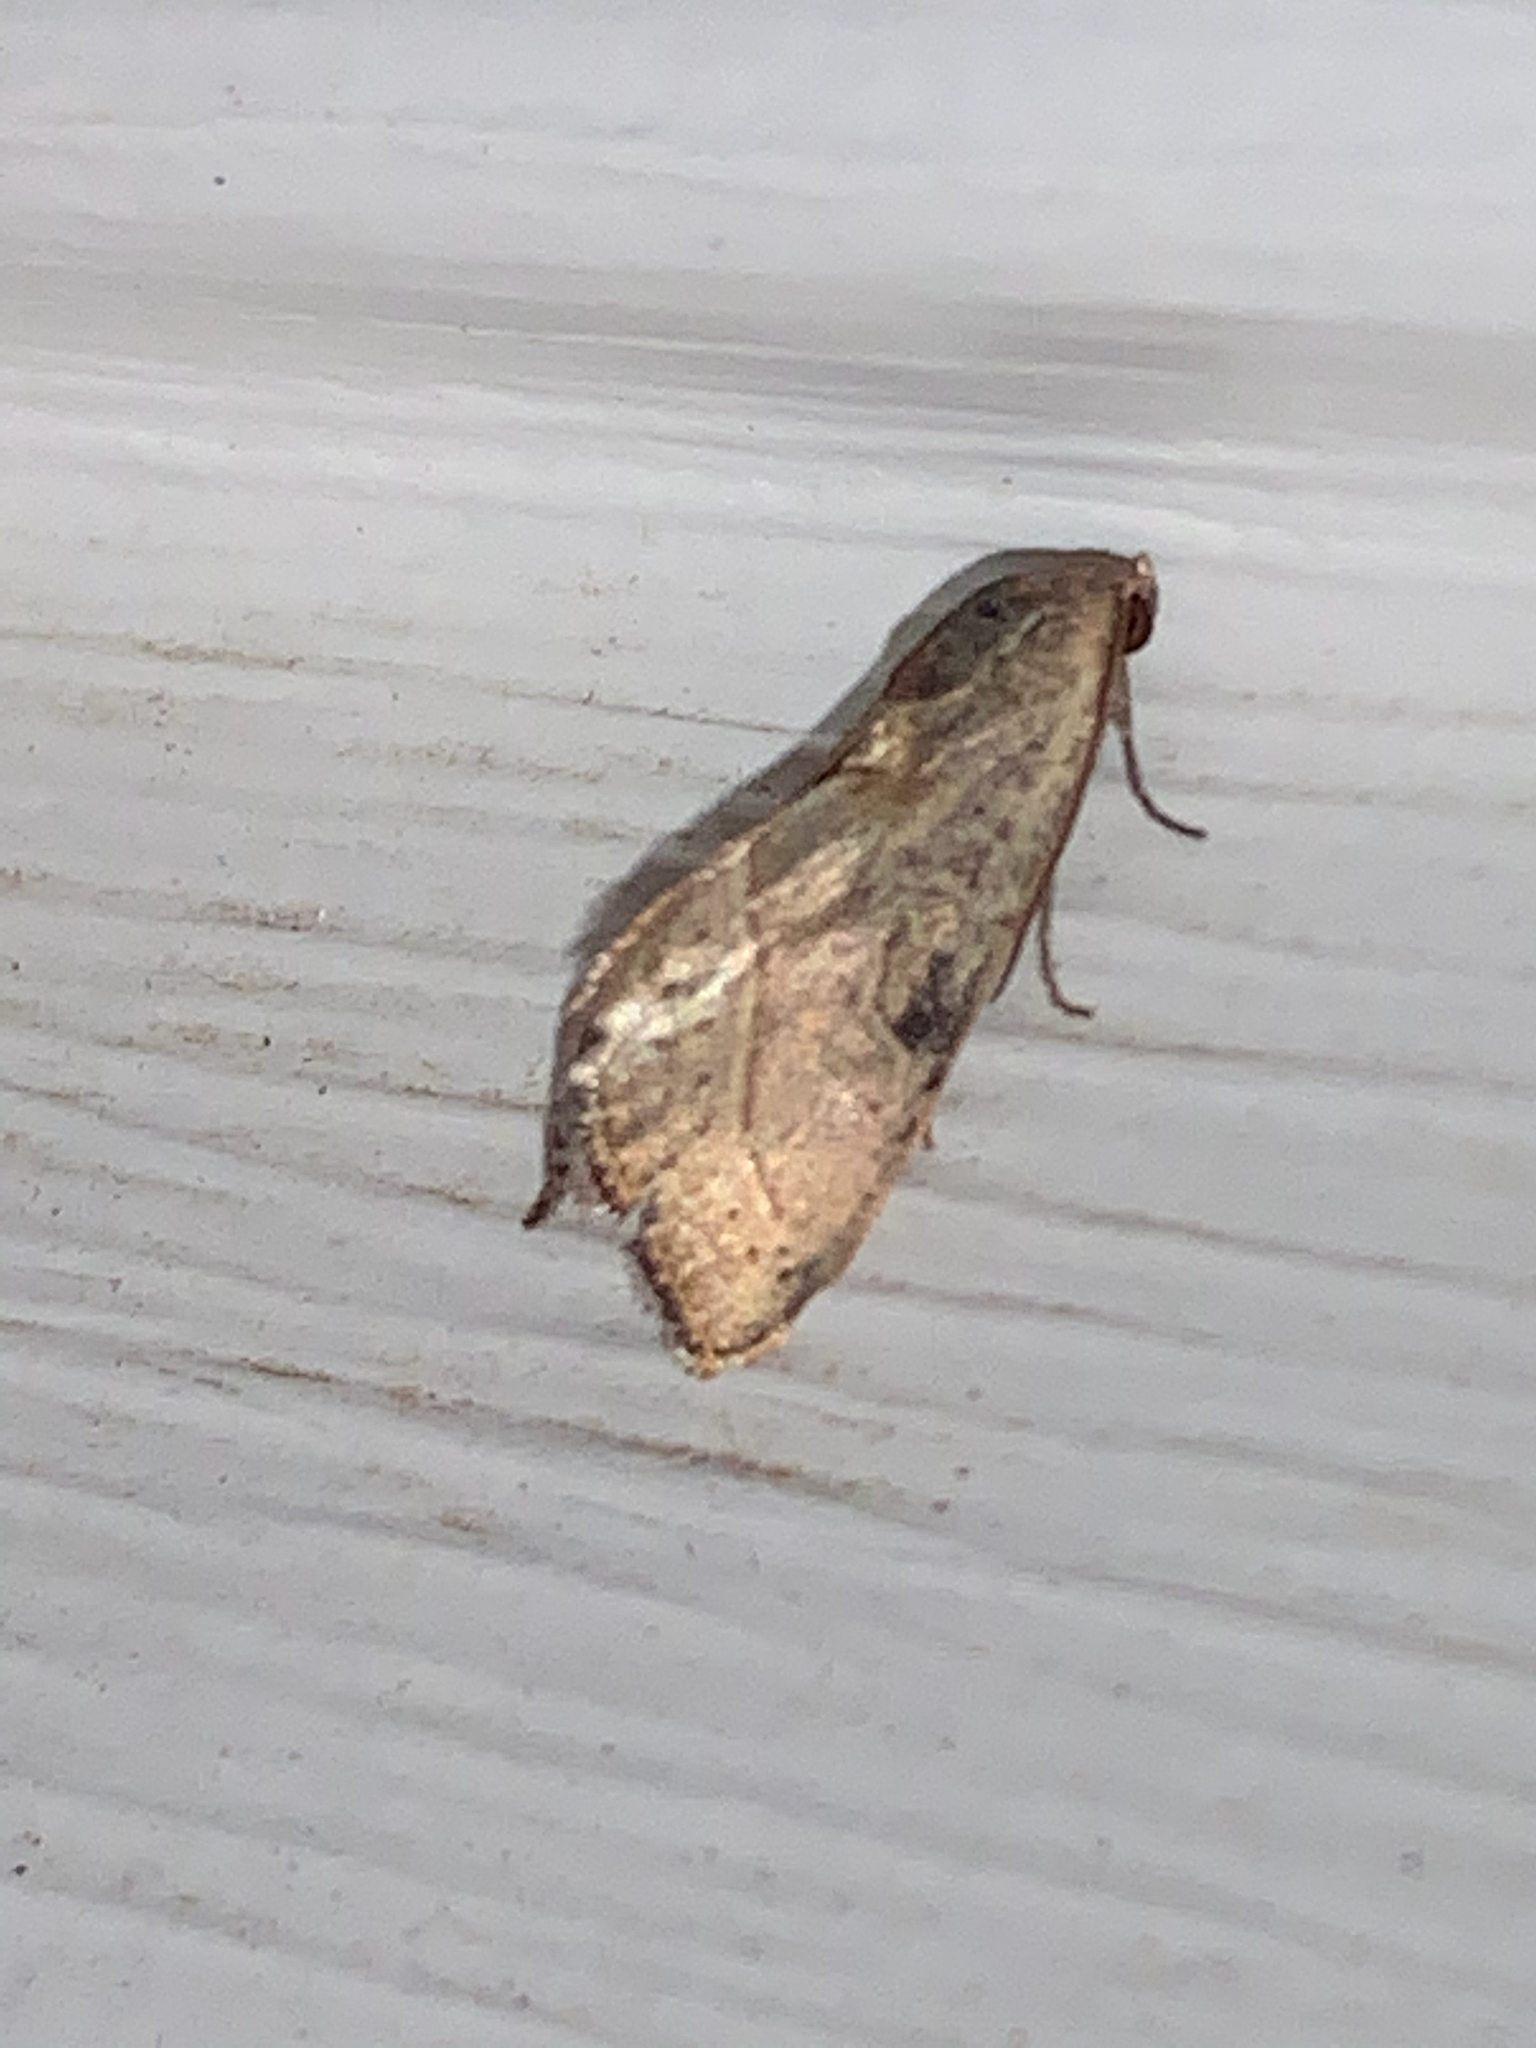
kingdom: Animalia
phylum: Arthropoda
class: Insecta
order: Lepidoptera
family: Noctuidae
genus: Galgula
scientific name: Galgula partita
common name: Wedgeling
